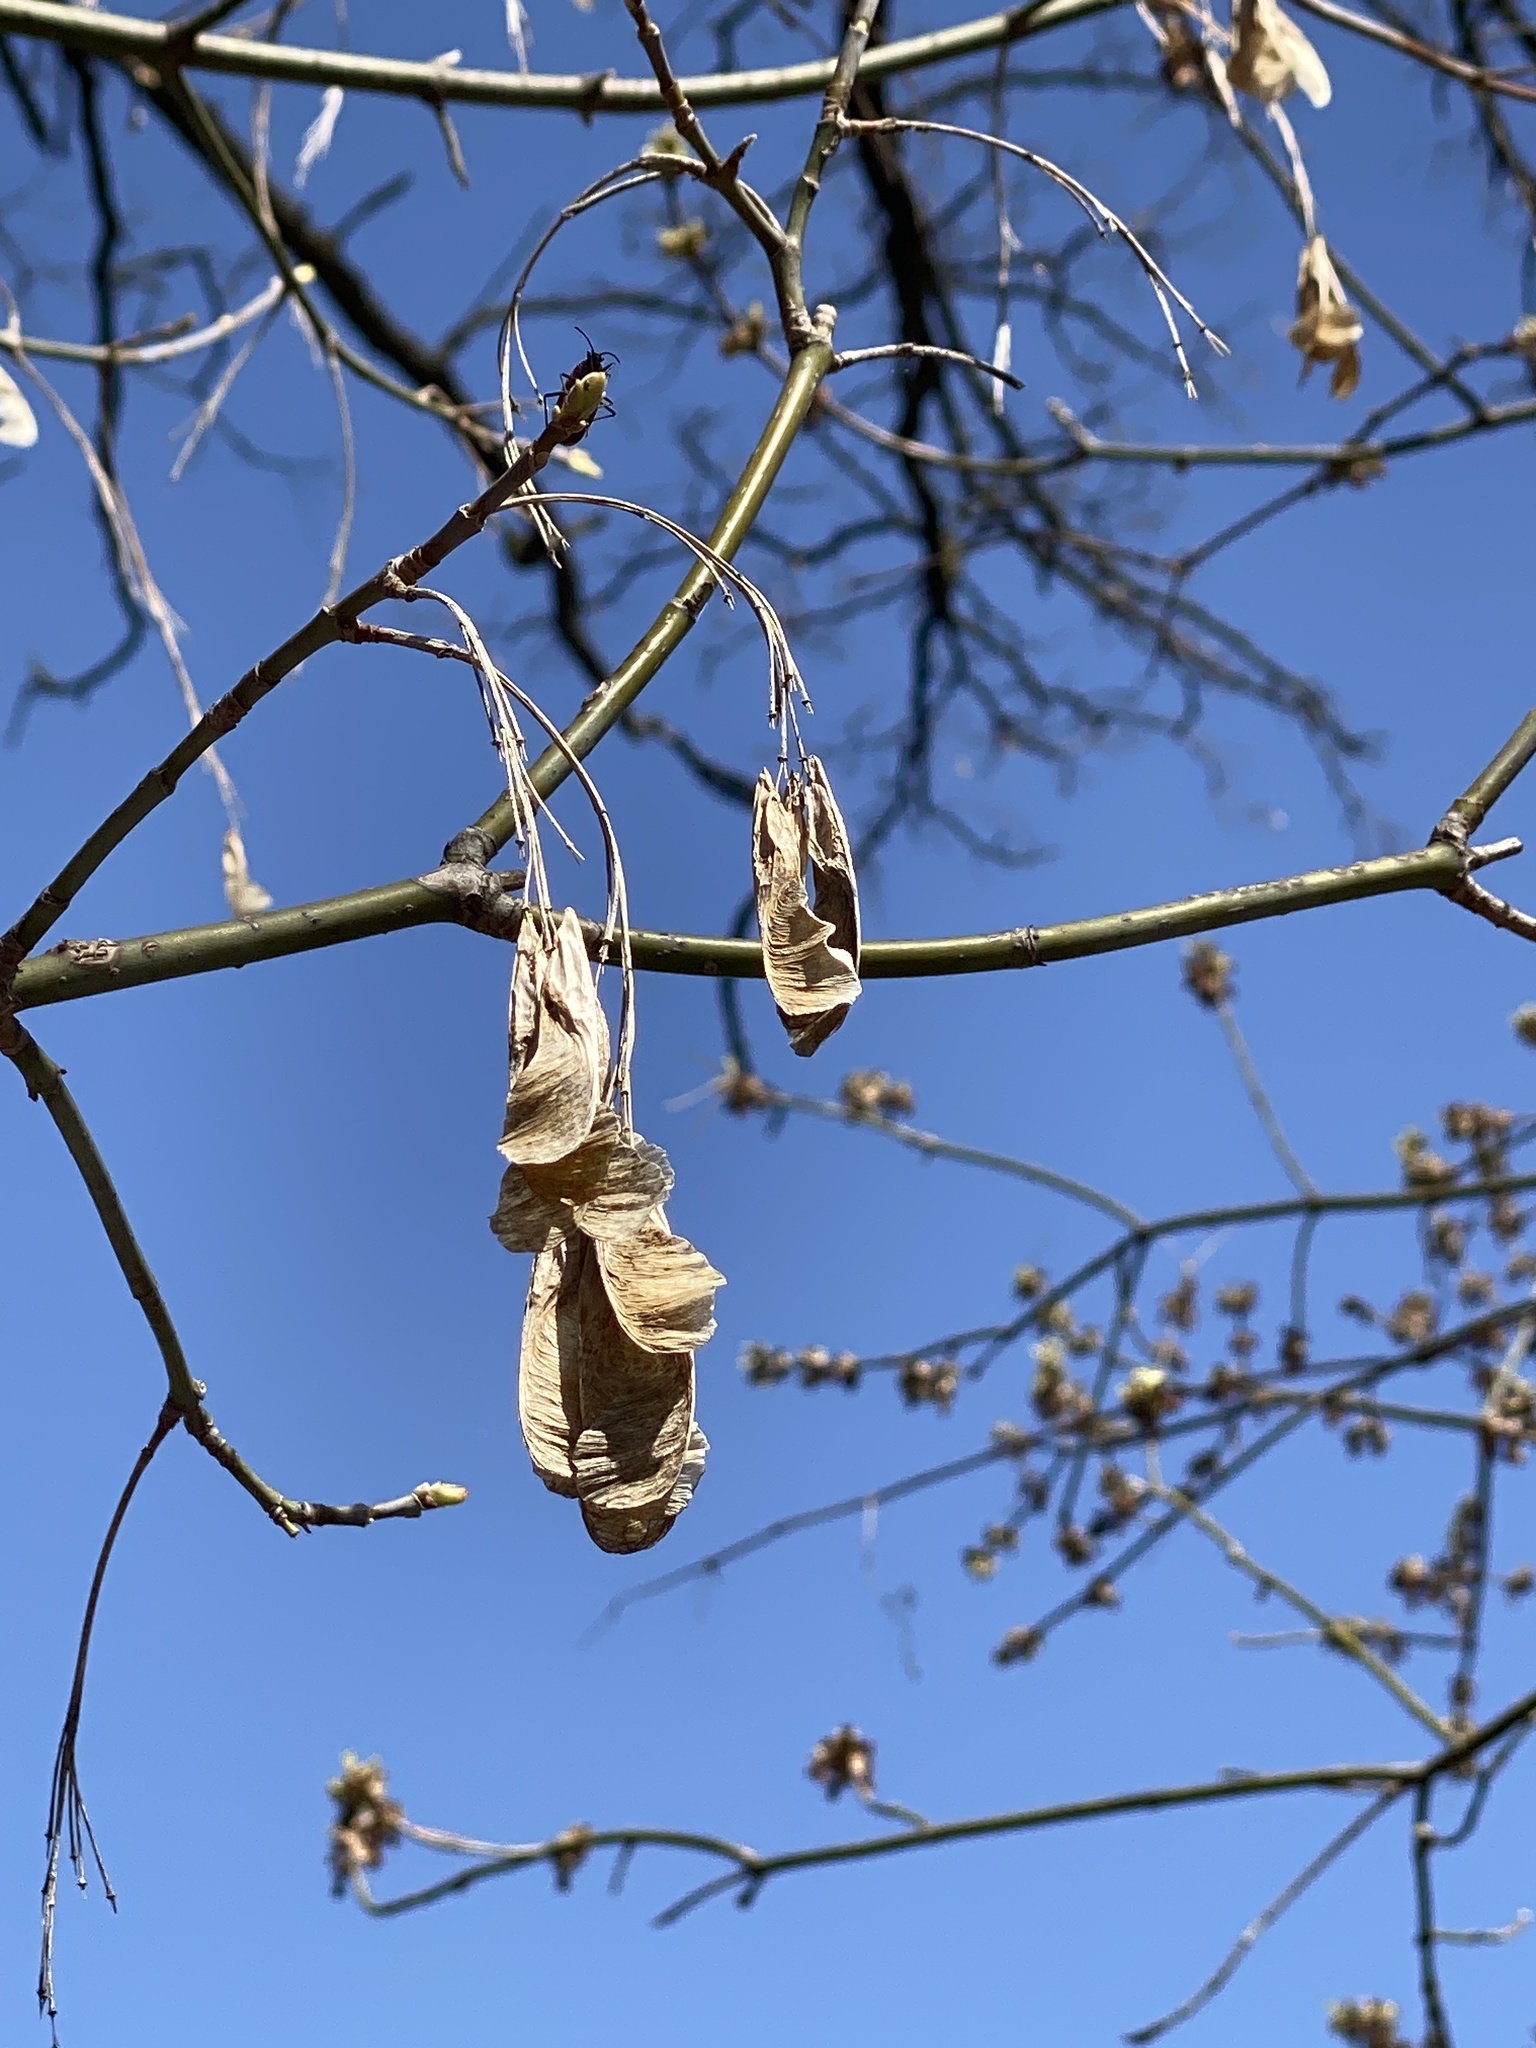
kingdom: Plantae
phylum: Tracheophyta
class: Magnoliopsida
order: Sapindales
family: Sapindaceae
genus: Acer
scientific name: Acer negundo
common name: Ashleaf maple
